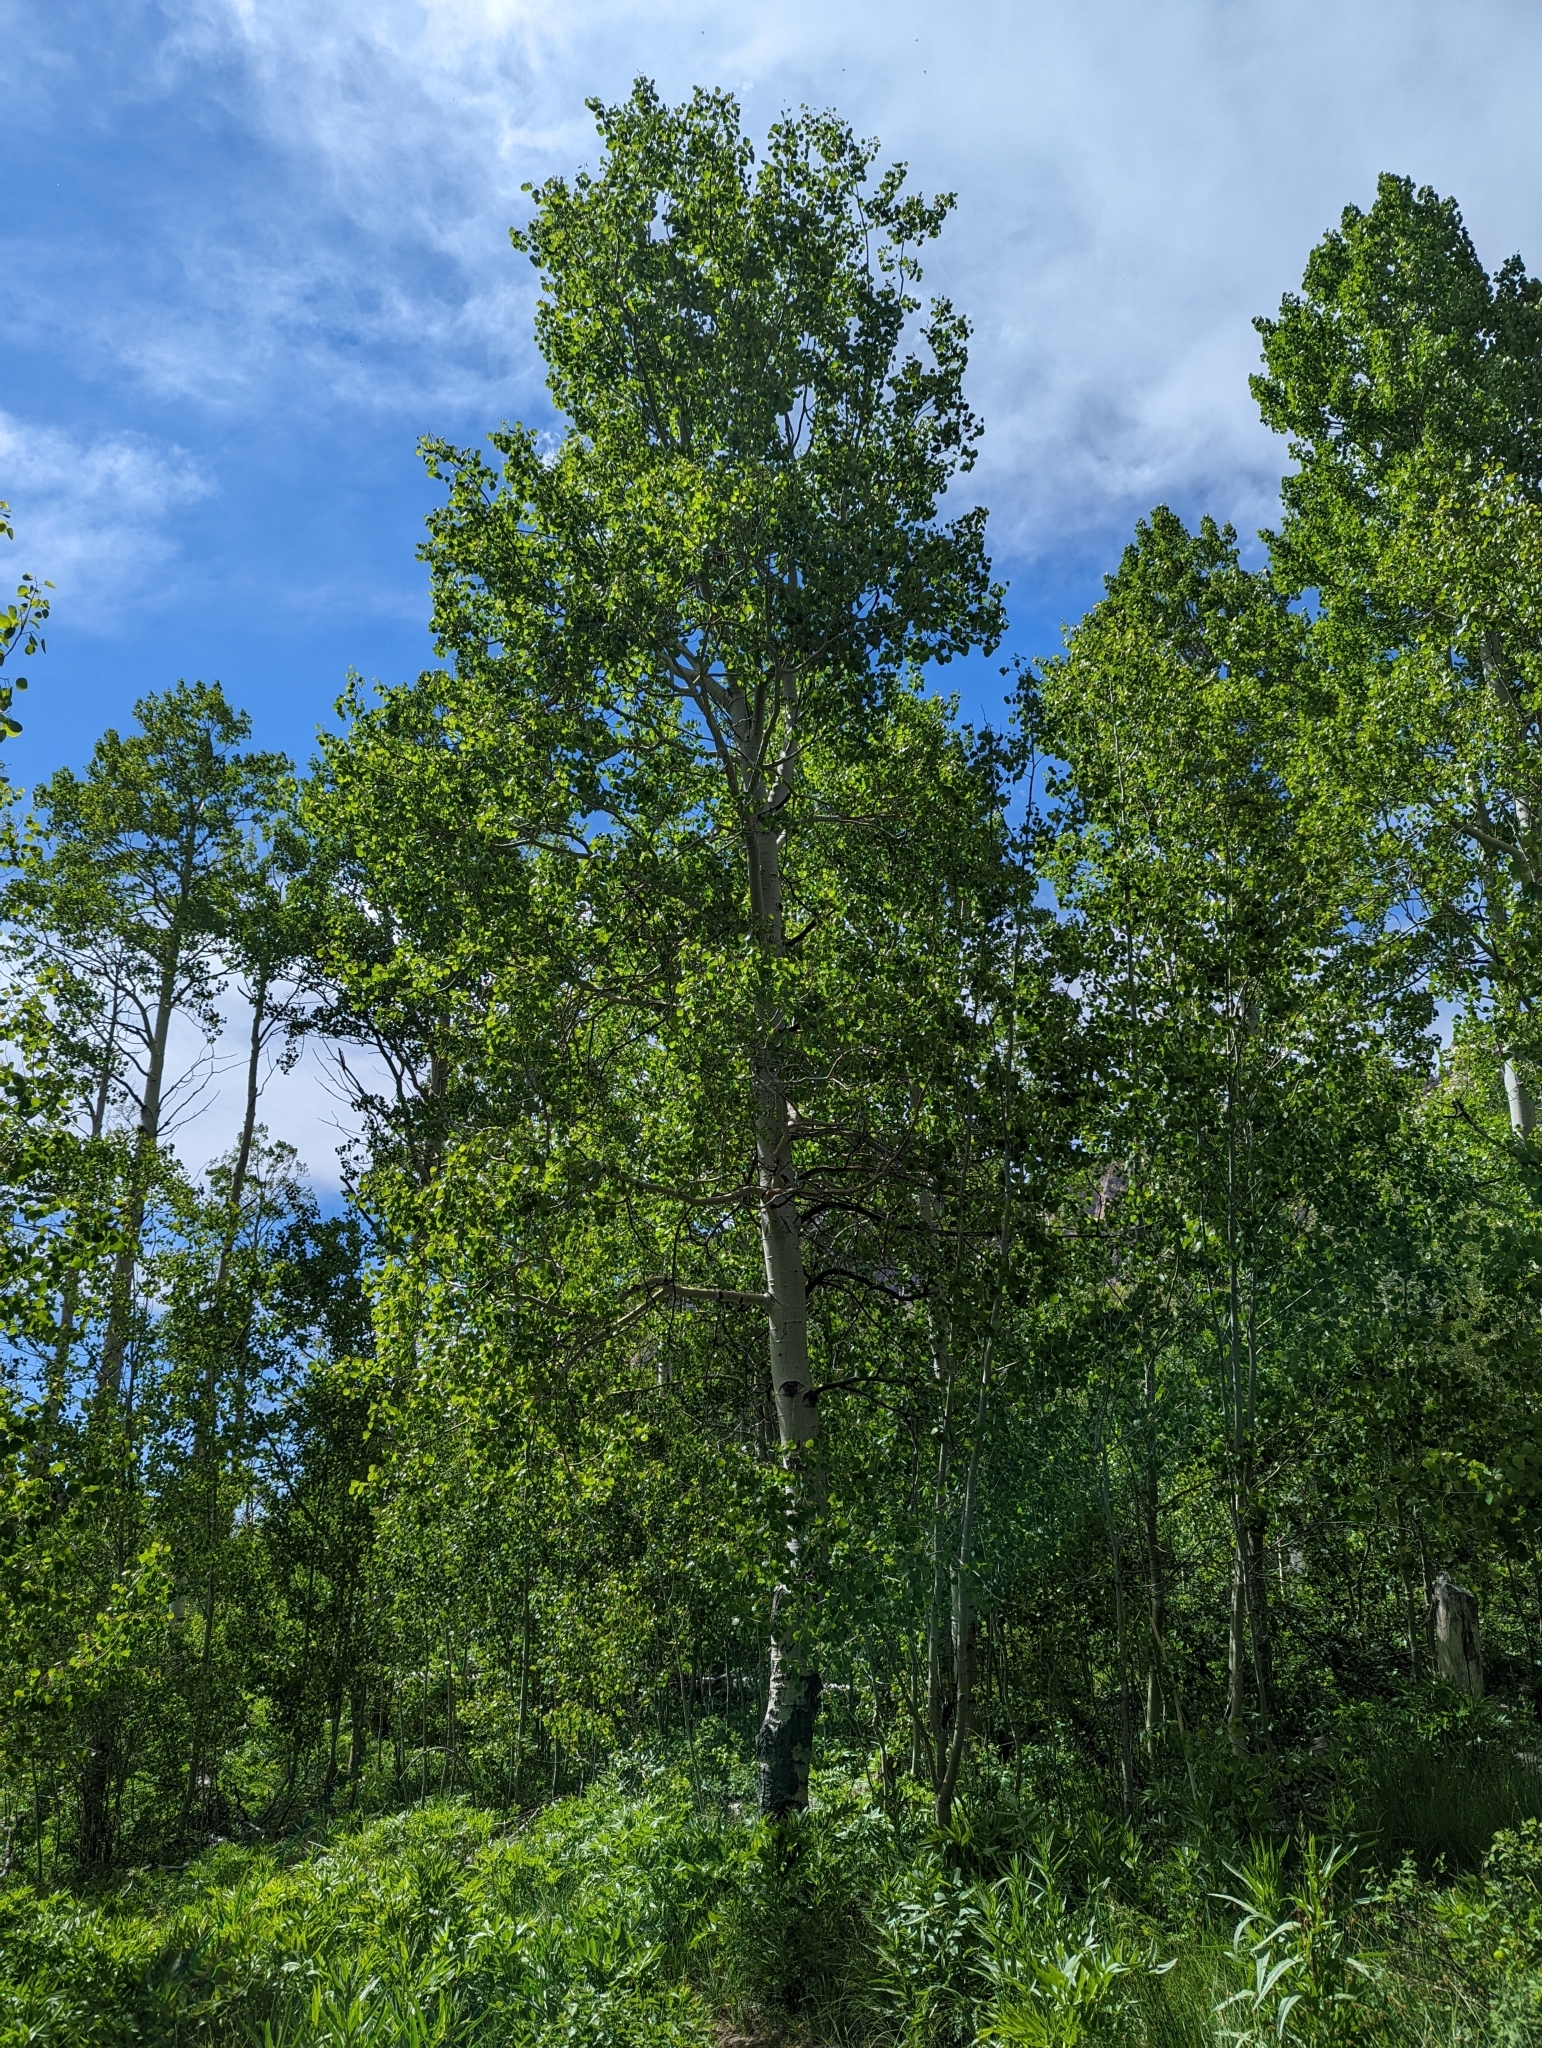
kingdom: Plantae
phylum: Tracheophyta
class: Magnoliopsida
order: Malpighiales
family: Salicaceae
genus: Populus
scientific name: Populus tremuloides
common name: Quaking aspen
